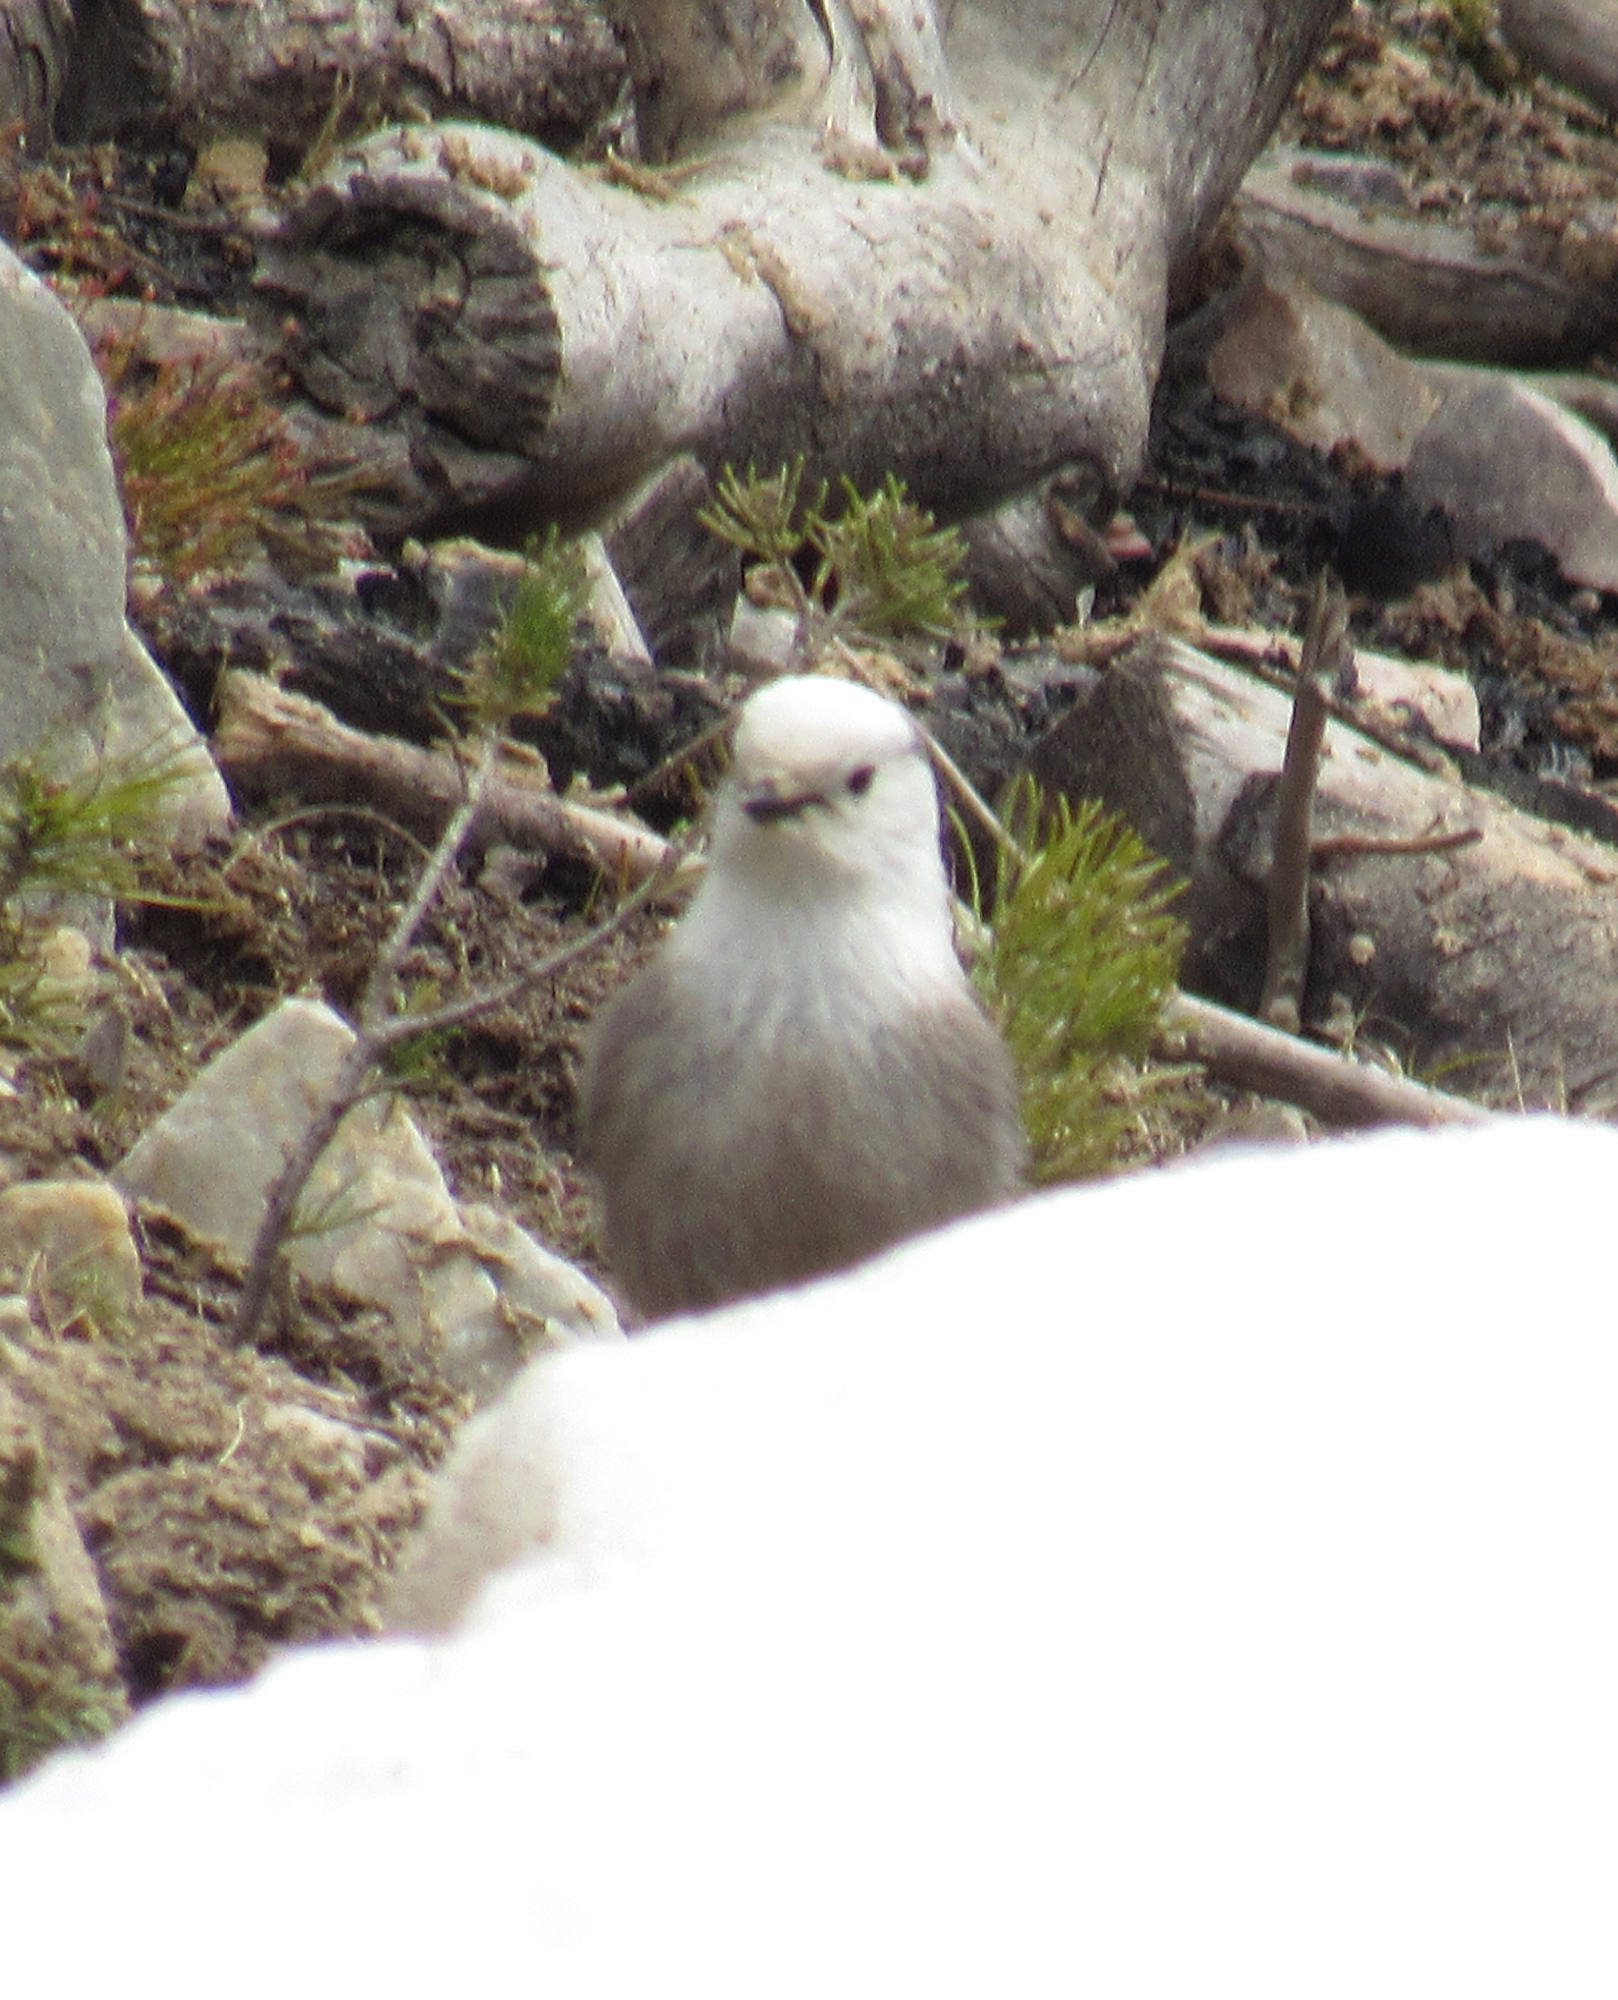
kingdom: Animalia
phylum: Chordata
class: Aves
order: Passeriformes
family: Corvidae
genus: Perisoreus
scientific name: Perisoreus canadensis
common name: Gray jay
